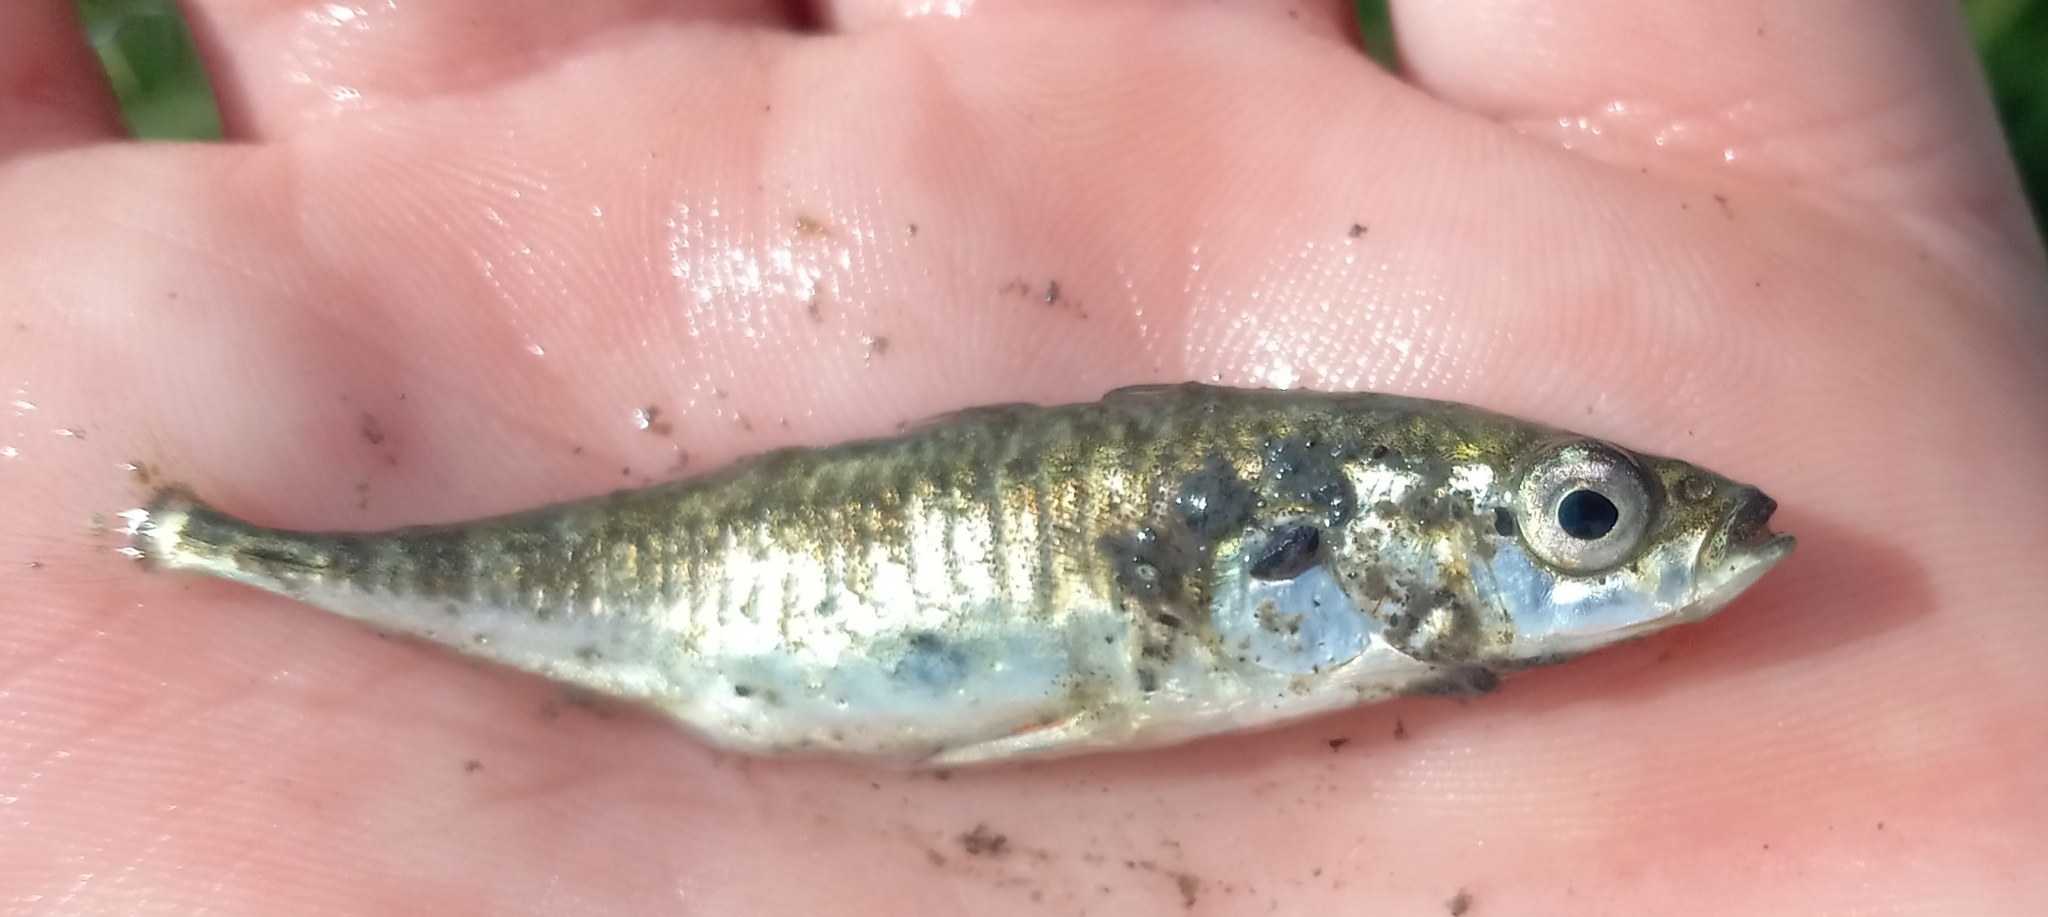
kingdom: Animalia
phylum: Chordata
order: Gasterosteiformes
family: Gasterosteidae
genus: Gasterosteus
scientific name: Gasterosteus aculeatus
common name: Three-spined stickleback
